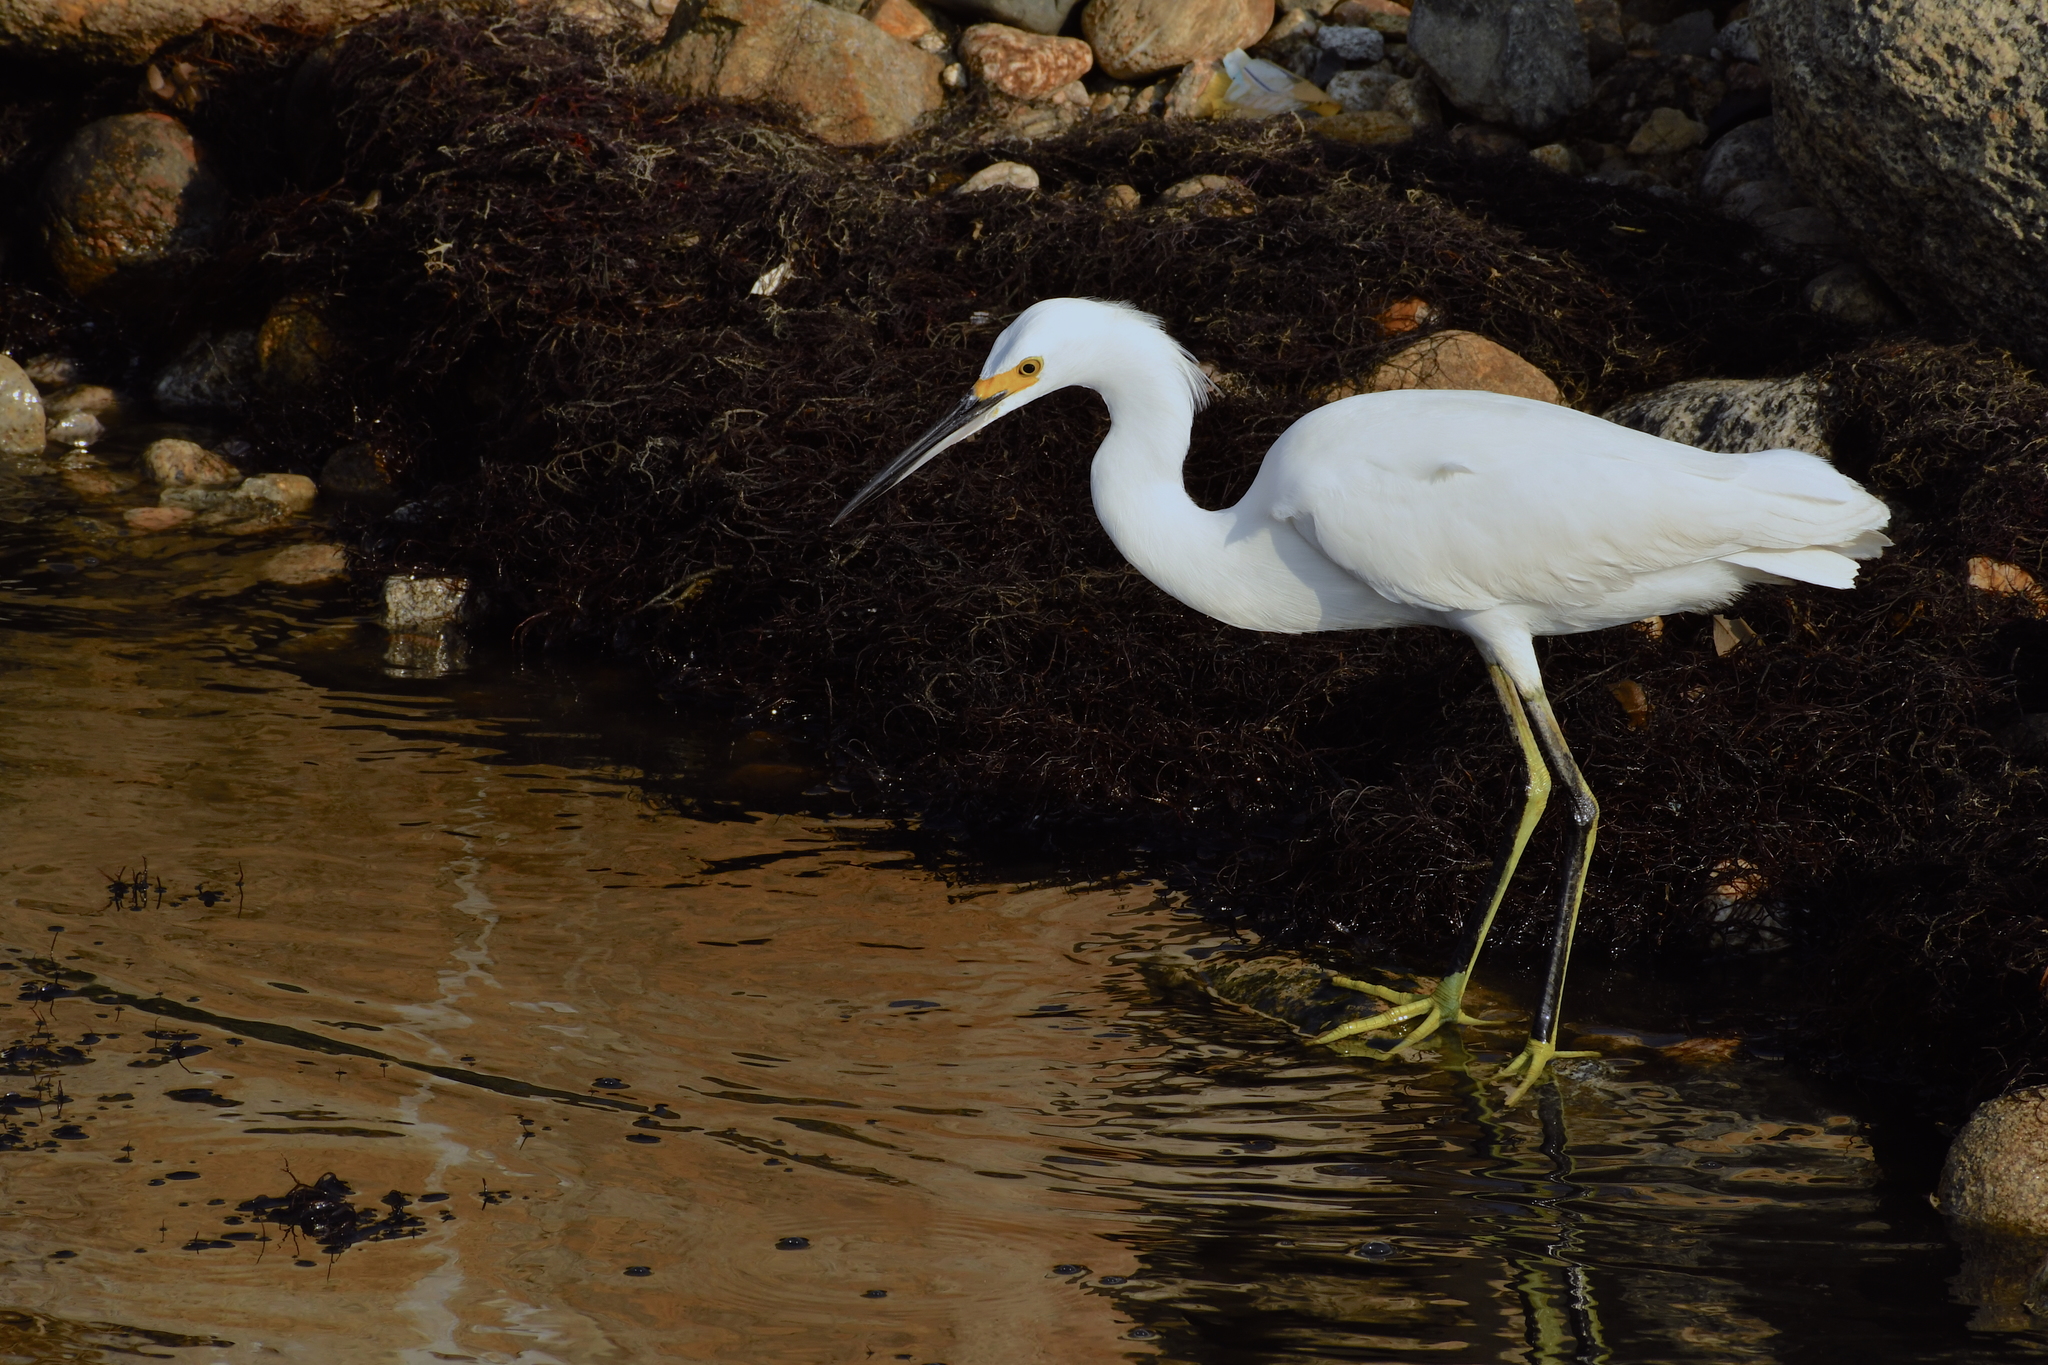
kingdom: Animalia
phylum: Chordata
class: Aves
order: Pelecaniformes
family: Ardeidae
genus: Egretta
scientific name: Egretta thula
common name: Snowy egret
